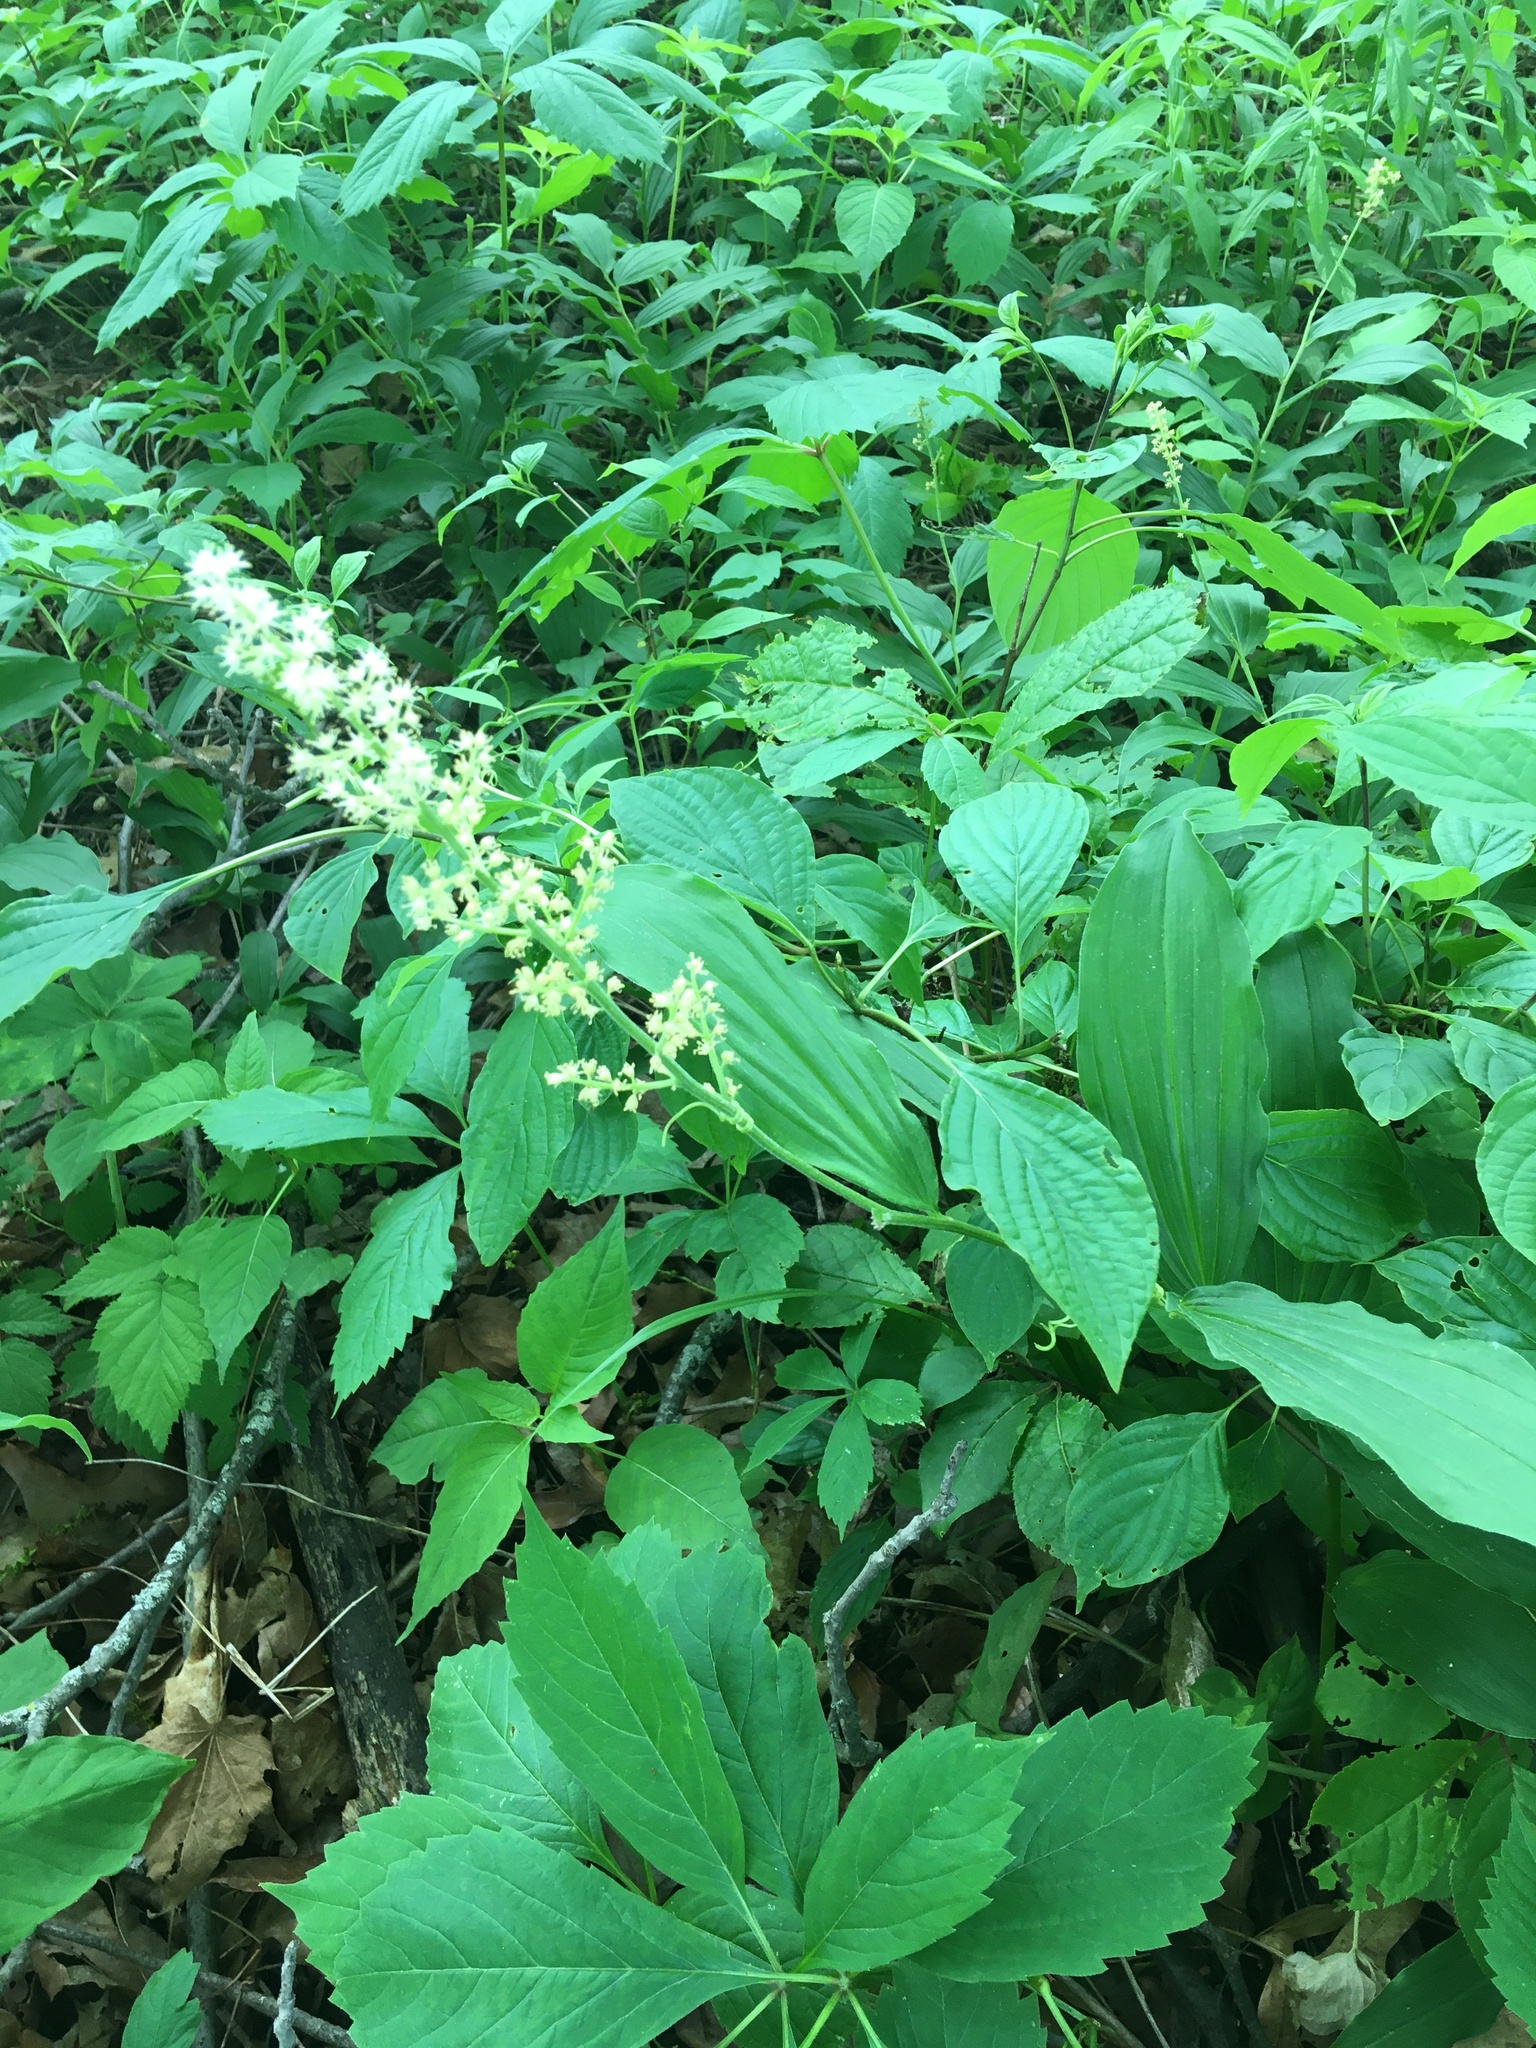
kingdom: Plantae
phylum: Tracheophyta
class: Liliopsida
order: Asparagales
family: Asparagaceae
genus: Maianthemum
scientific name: Maianthemum racemosum
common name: False spikenard
